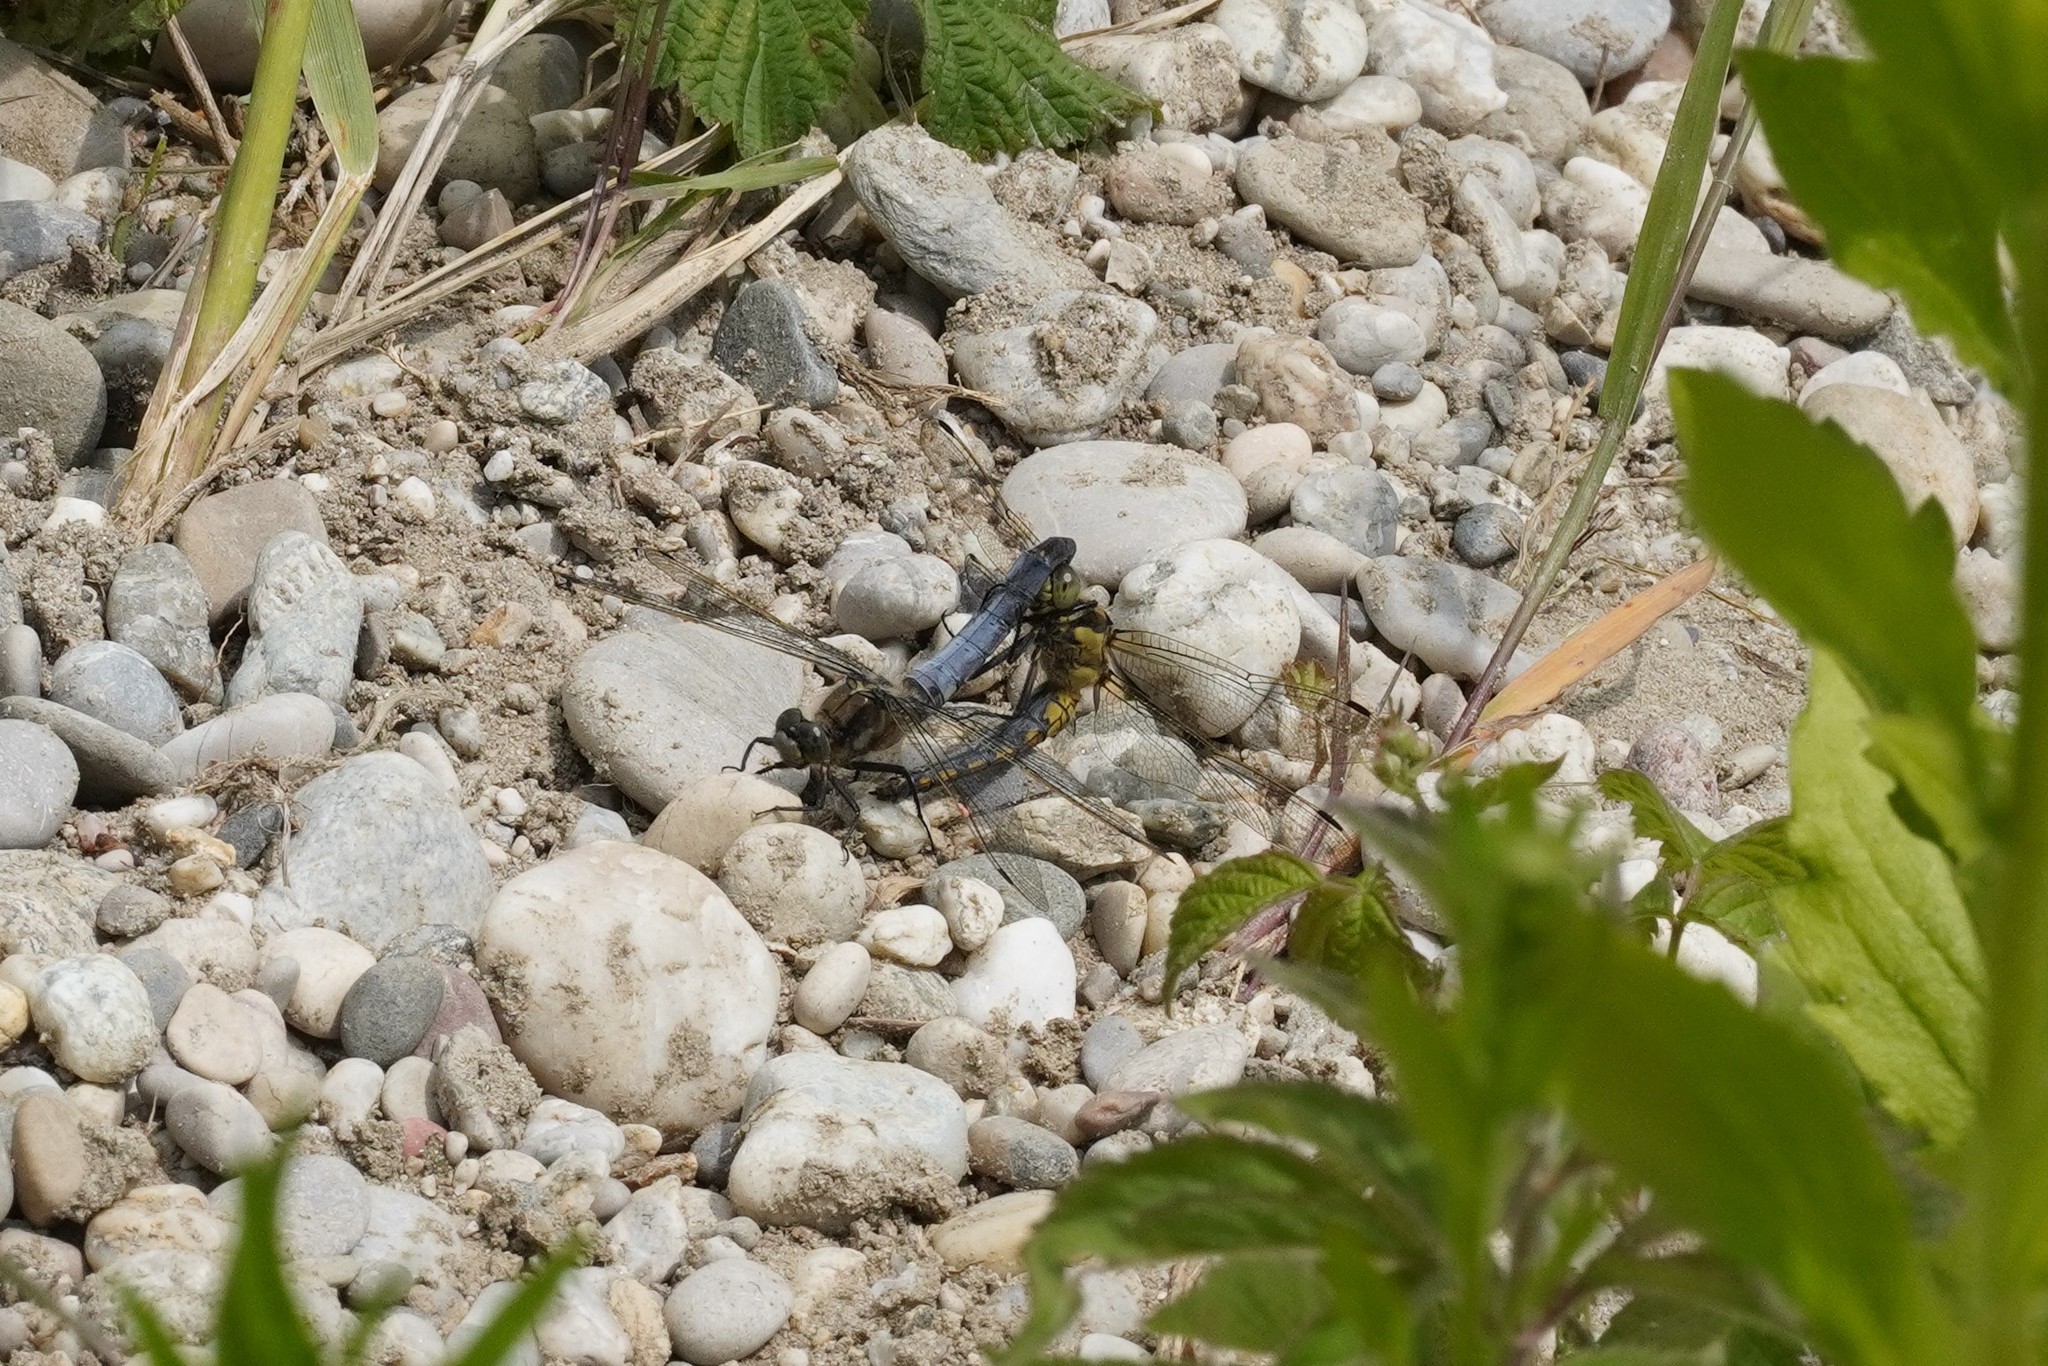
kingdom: Animalia
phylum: Arthropoda
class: Insecta
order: Odonata
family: Libellulidae
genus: Orthetrum
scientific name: Orthetrum cancellatum
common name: Black-tailed skimmer
